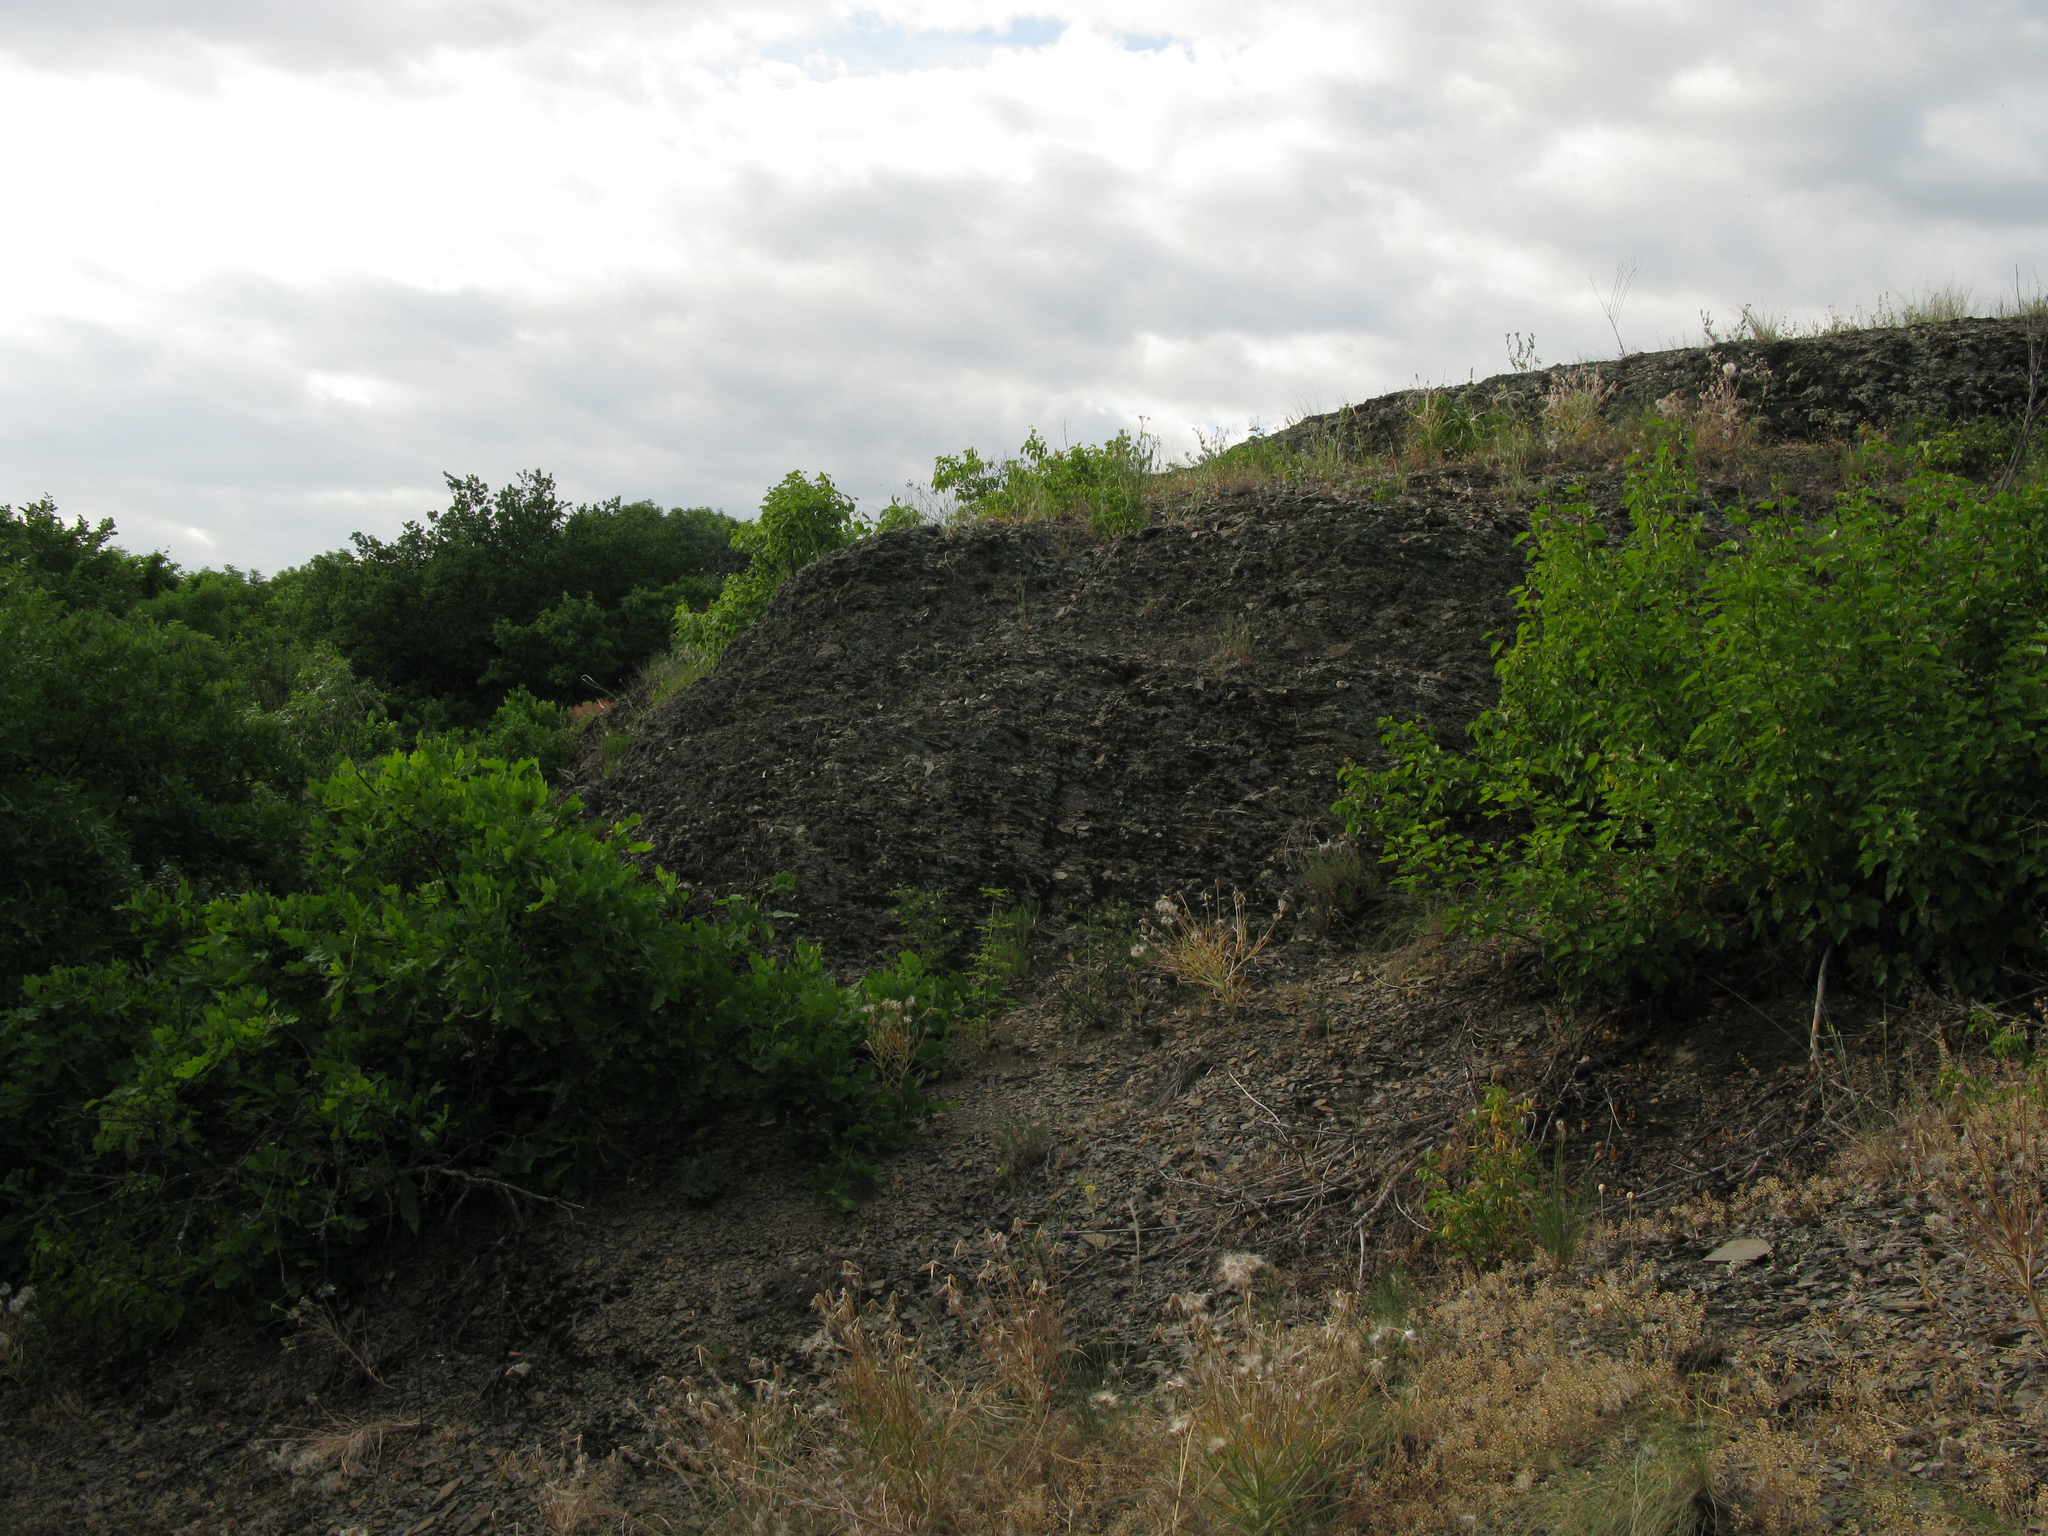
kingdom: Plantae
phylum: Tracheophyta
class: Magnoliopsida
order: Fagales
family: Fagaceae
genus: Quercus
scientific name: Quercus robur
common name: Pedunculate oak
